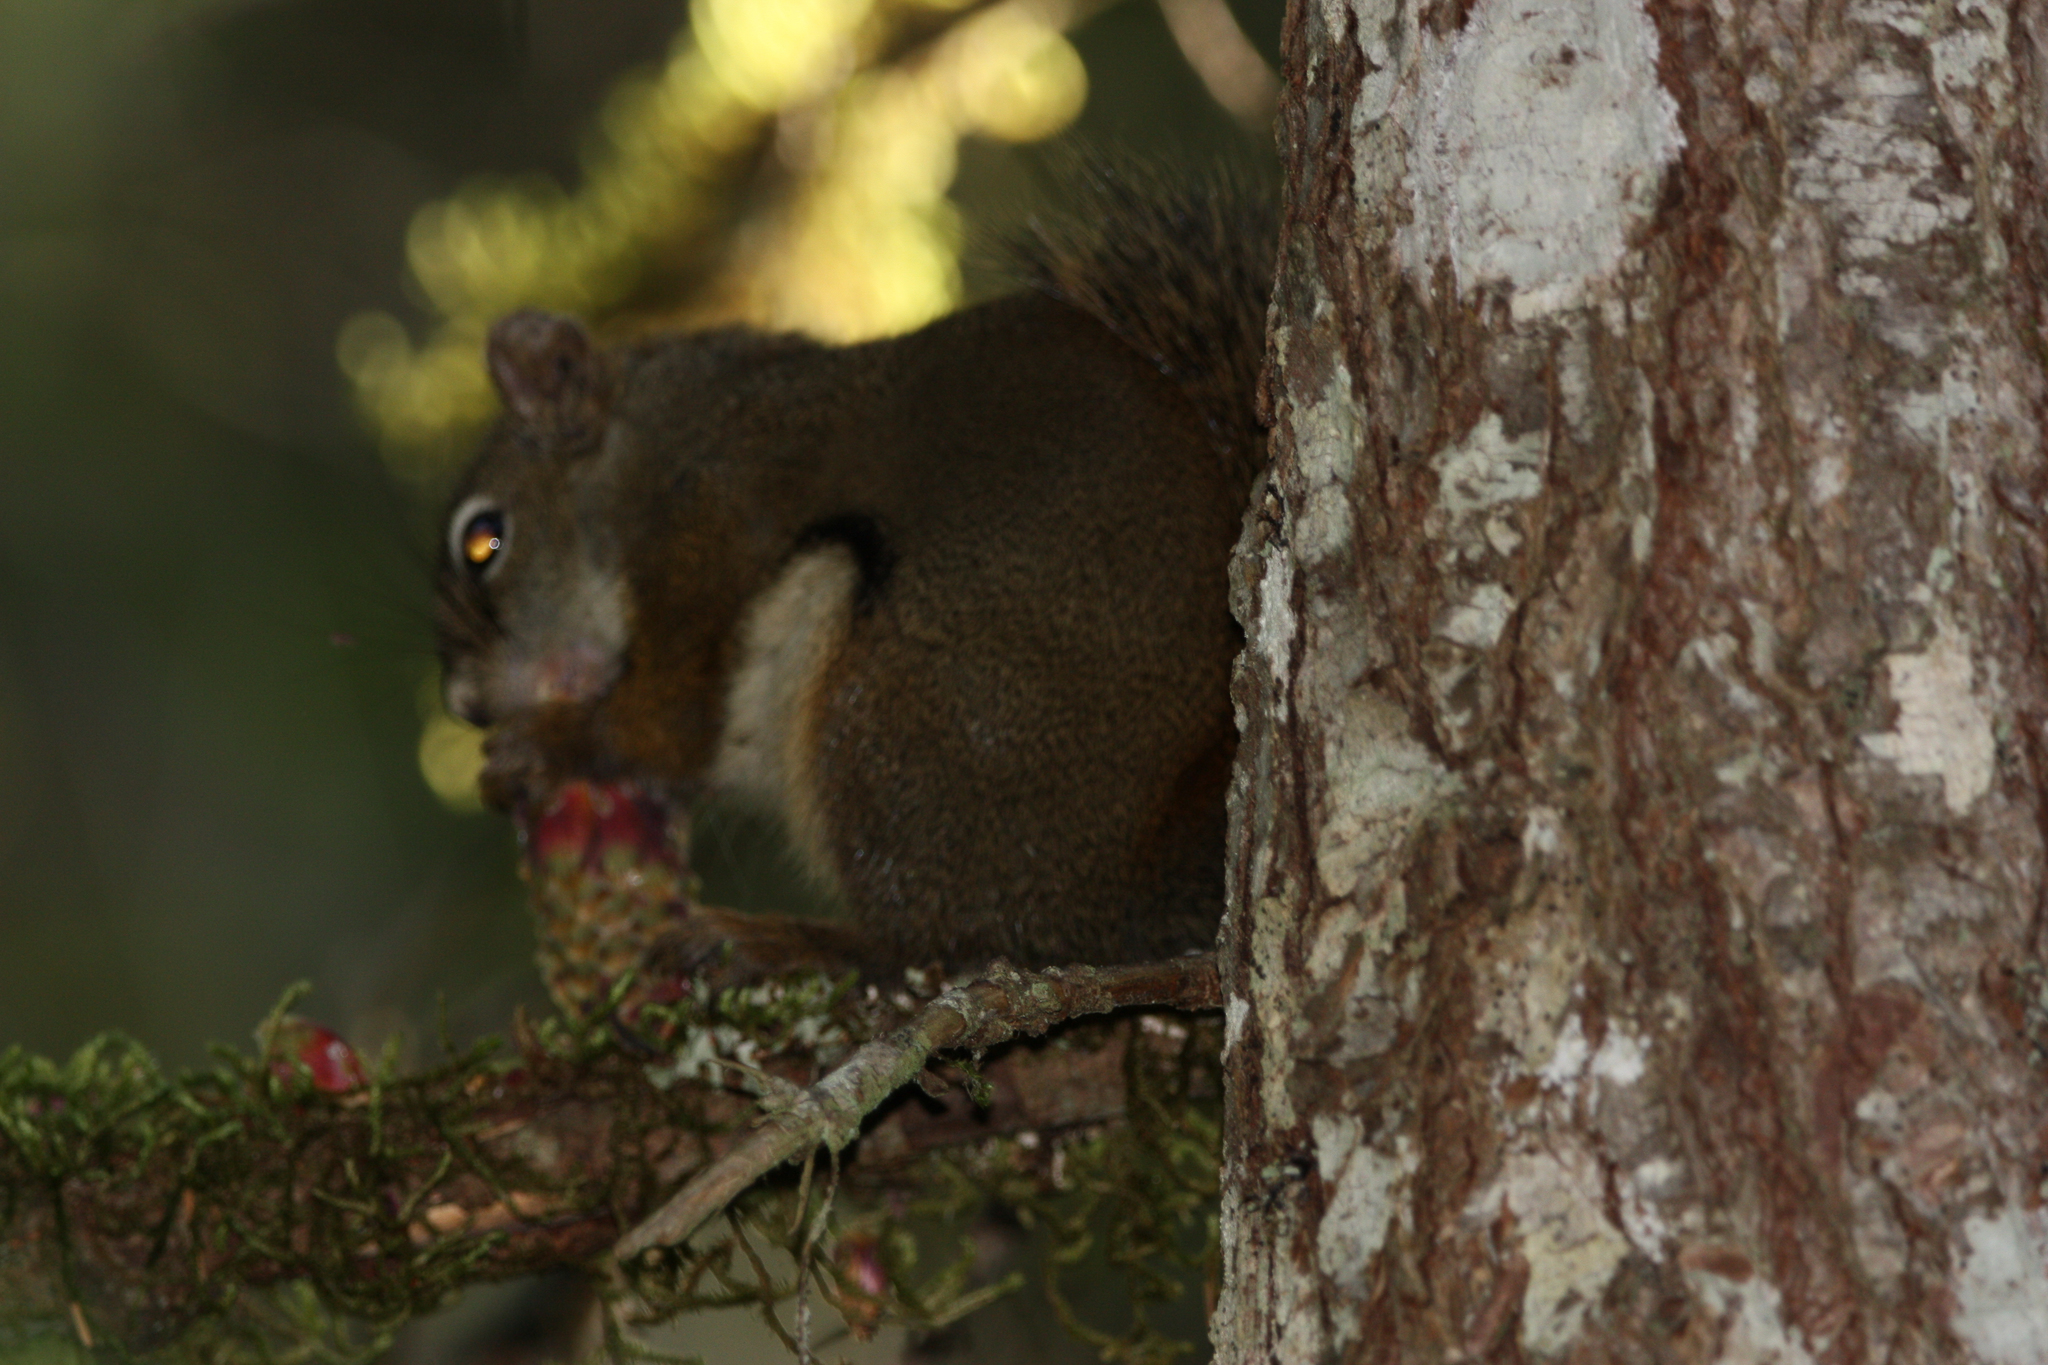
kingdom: Animalia
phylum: Chordata
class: Mammalia
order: Rodentia
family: Sciuridae
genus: Tamiasciurus
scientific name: Tamiasciurus hudsonicus
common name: Red squirrel
